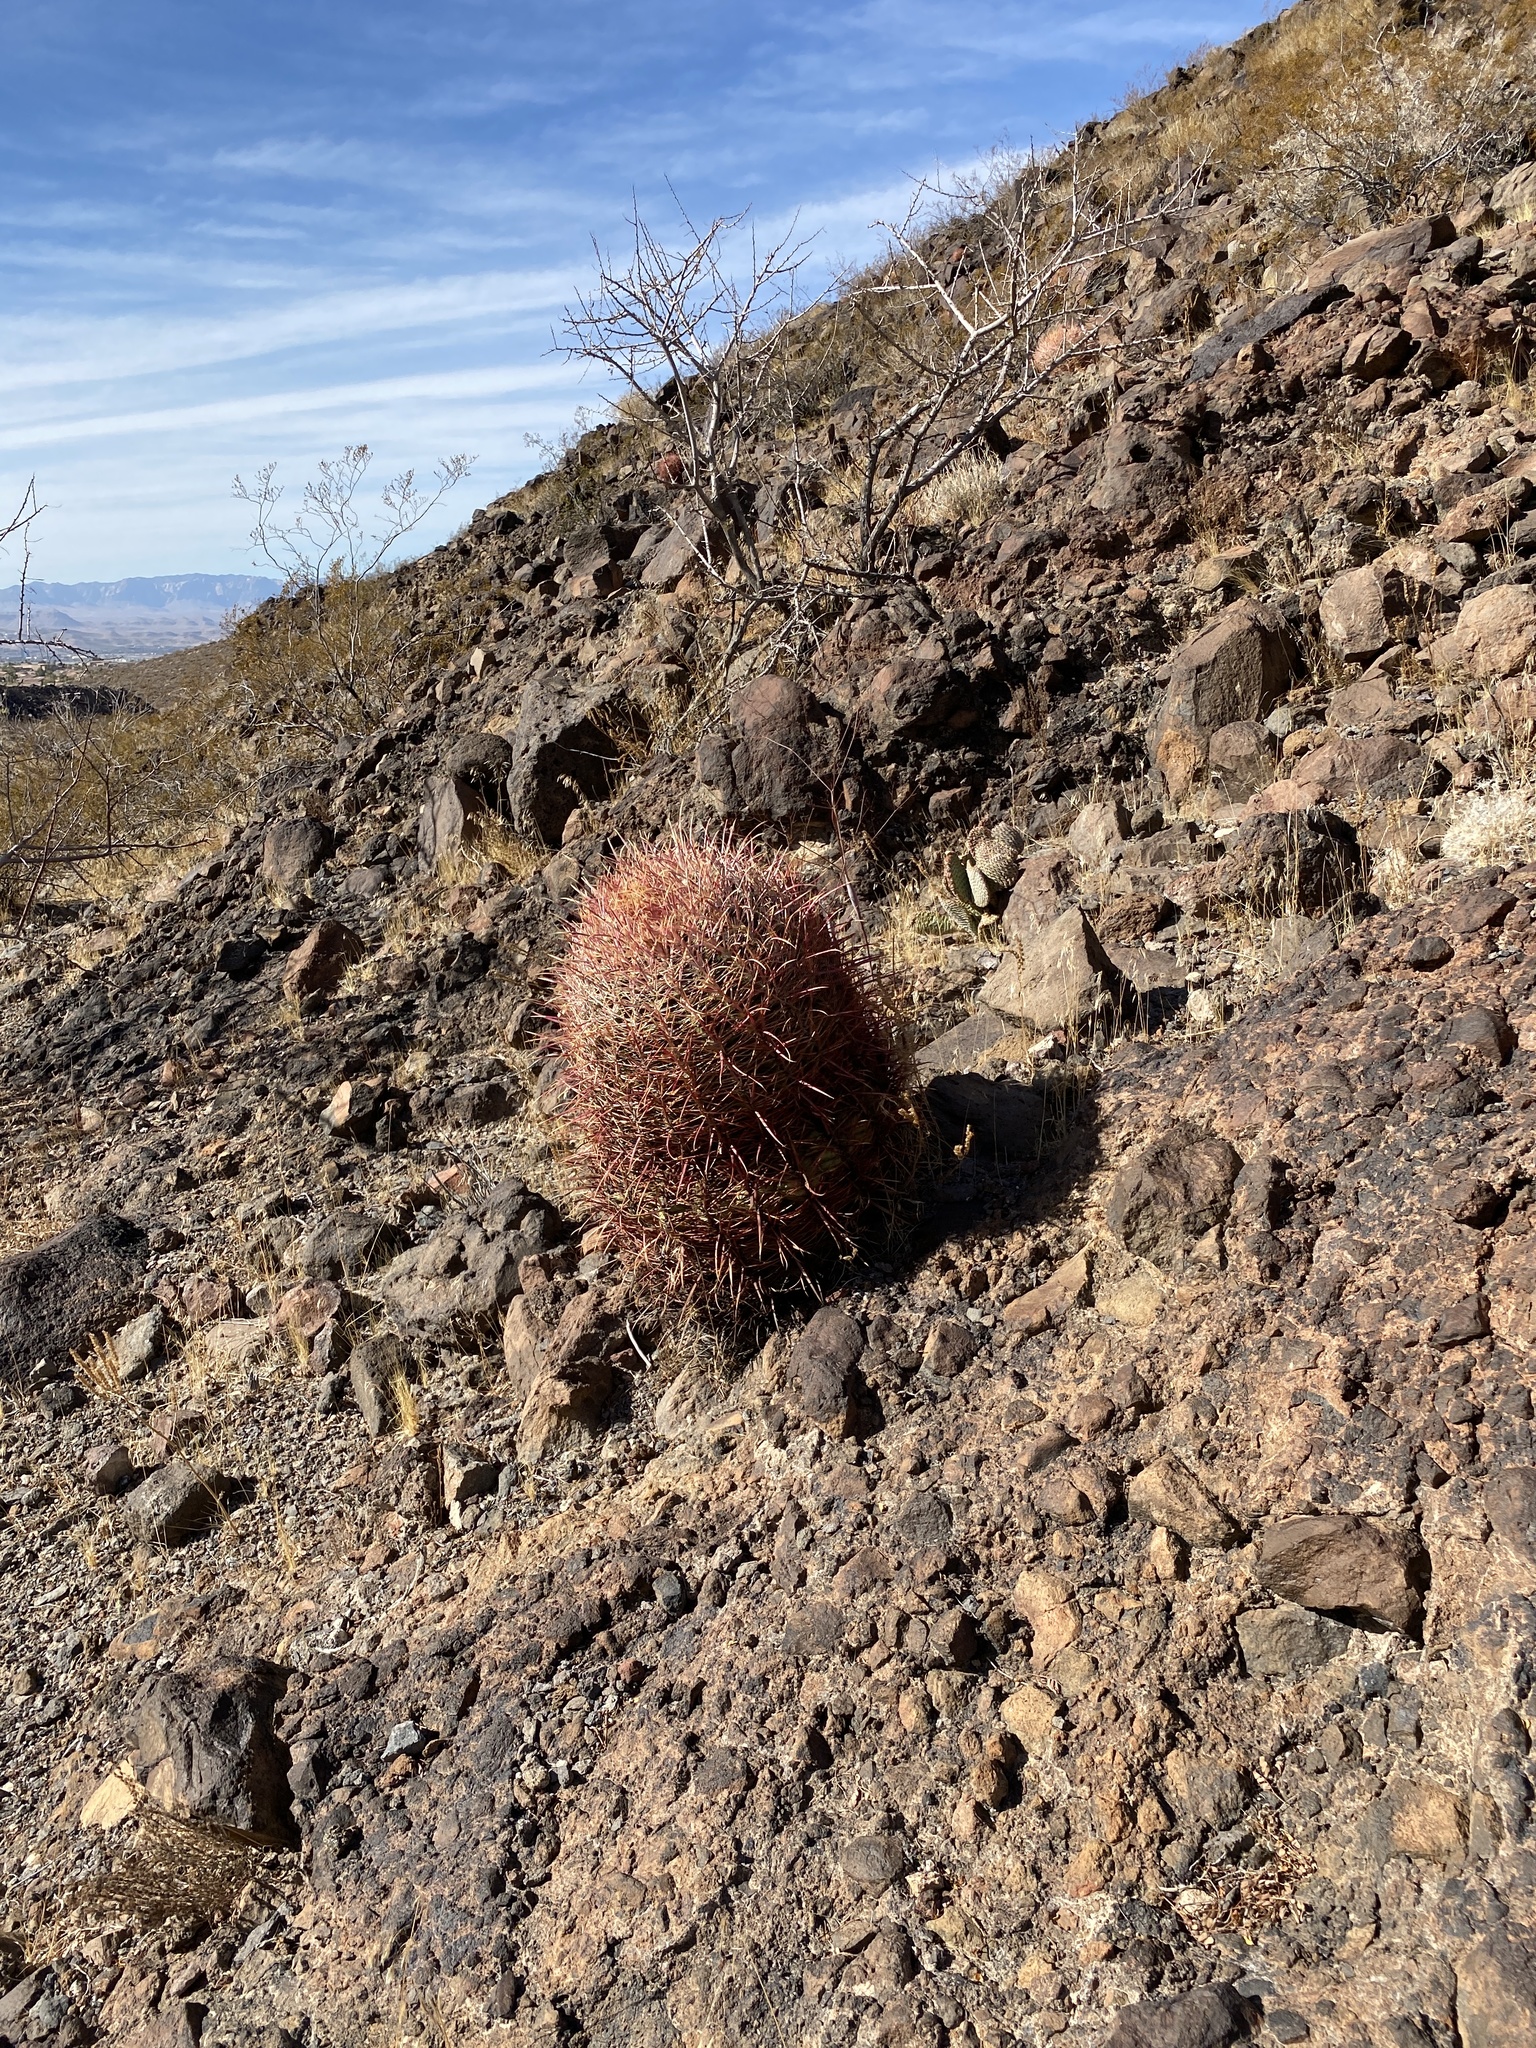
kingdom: Plantae
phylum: Tracheophyta
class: Magnoliopsida
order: Caryophyllales
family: Cactaceae
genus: Ferocactus
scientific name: Ferocactus cylindraceus
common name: California barrel cactus
